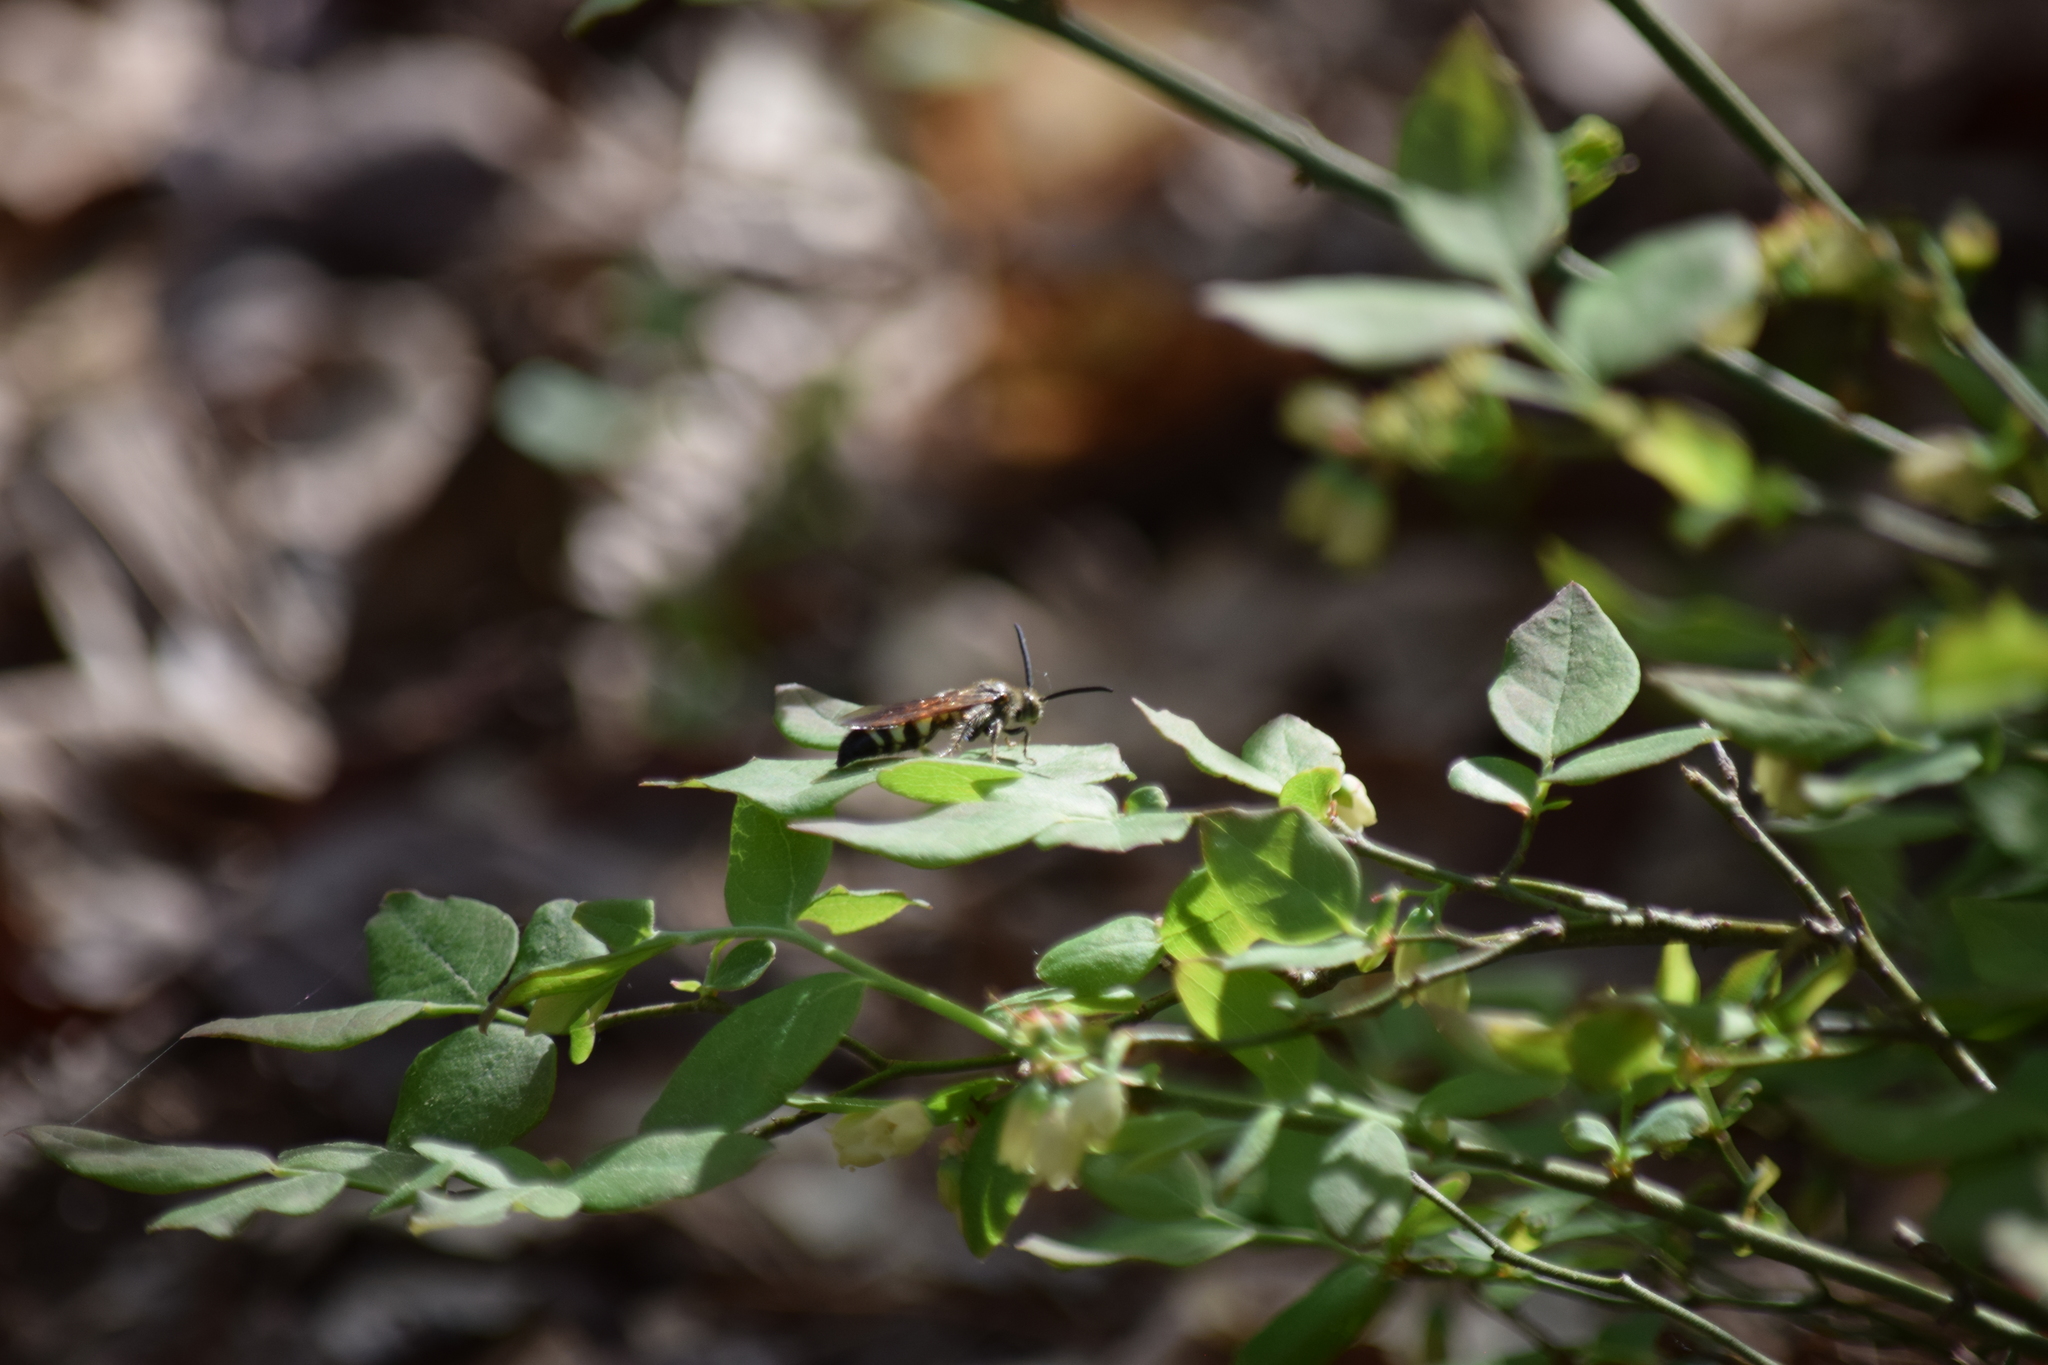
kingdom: Animalia
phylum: Arthropoda
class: Insecta
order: Hymenoptera
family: Scoliidae
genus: Dielis
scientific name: Dielis
